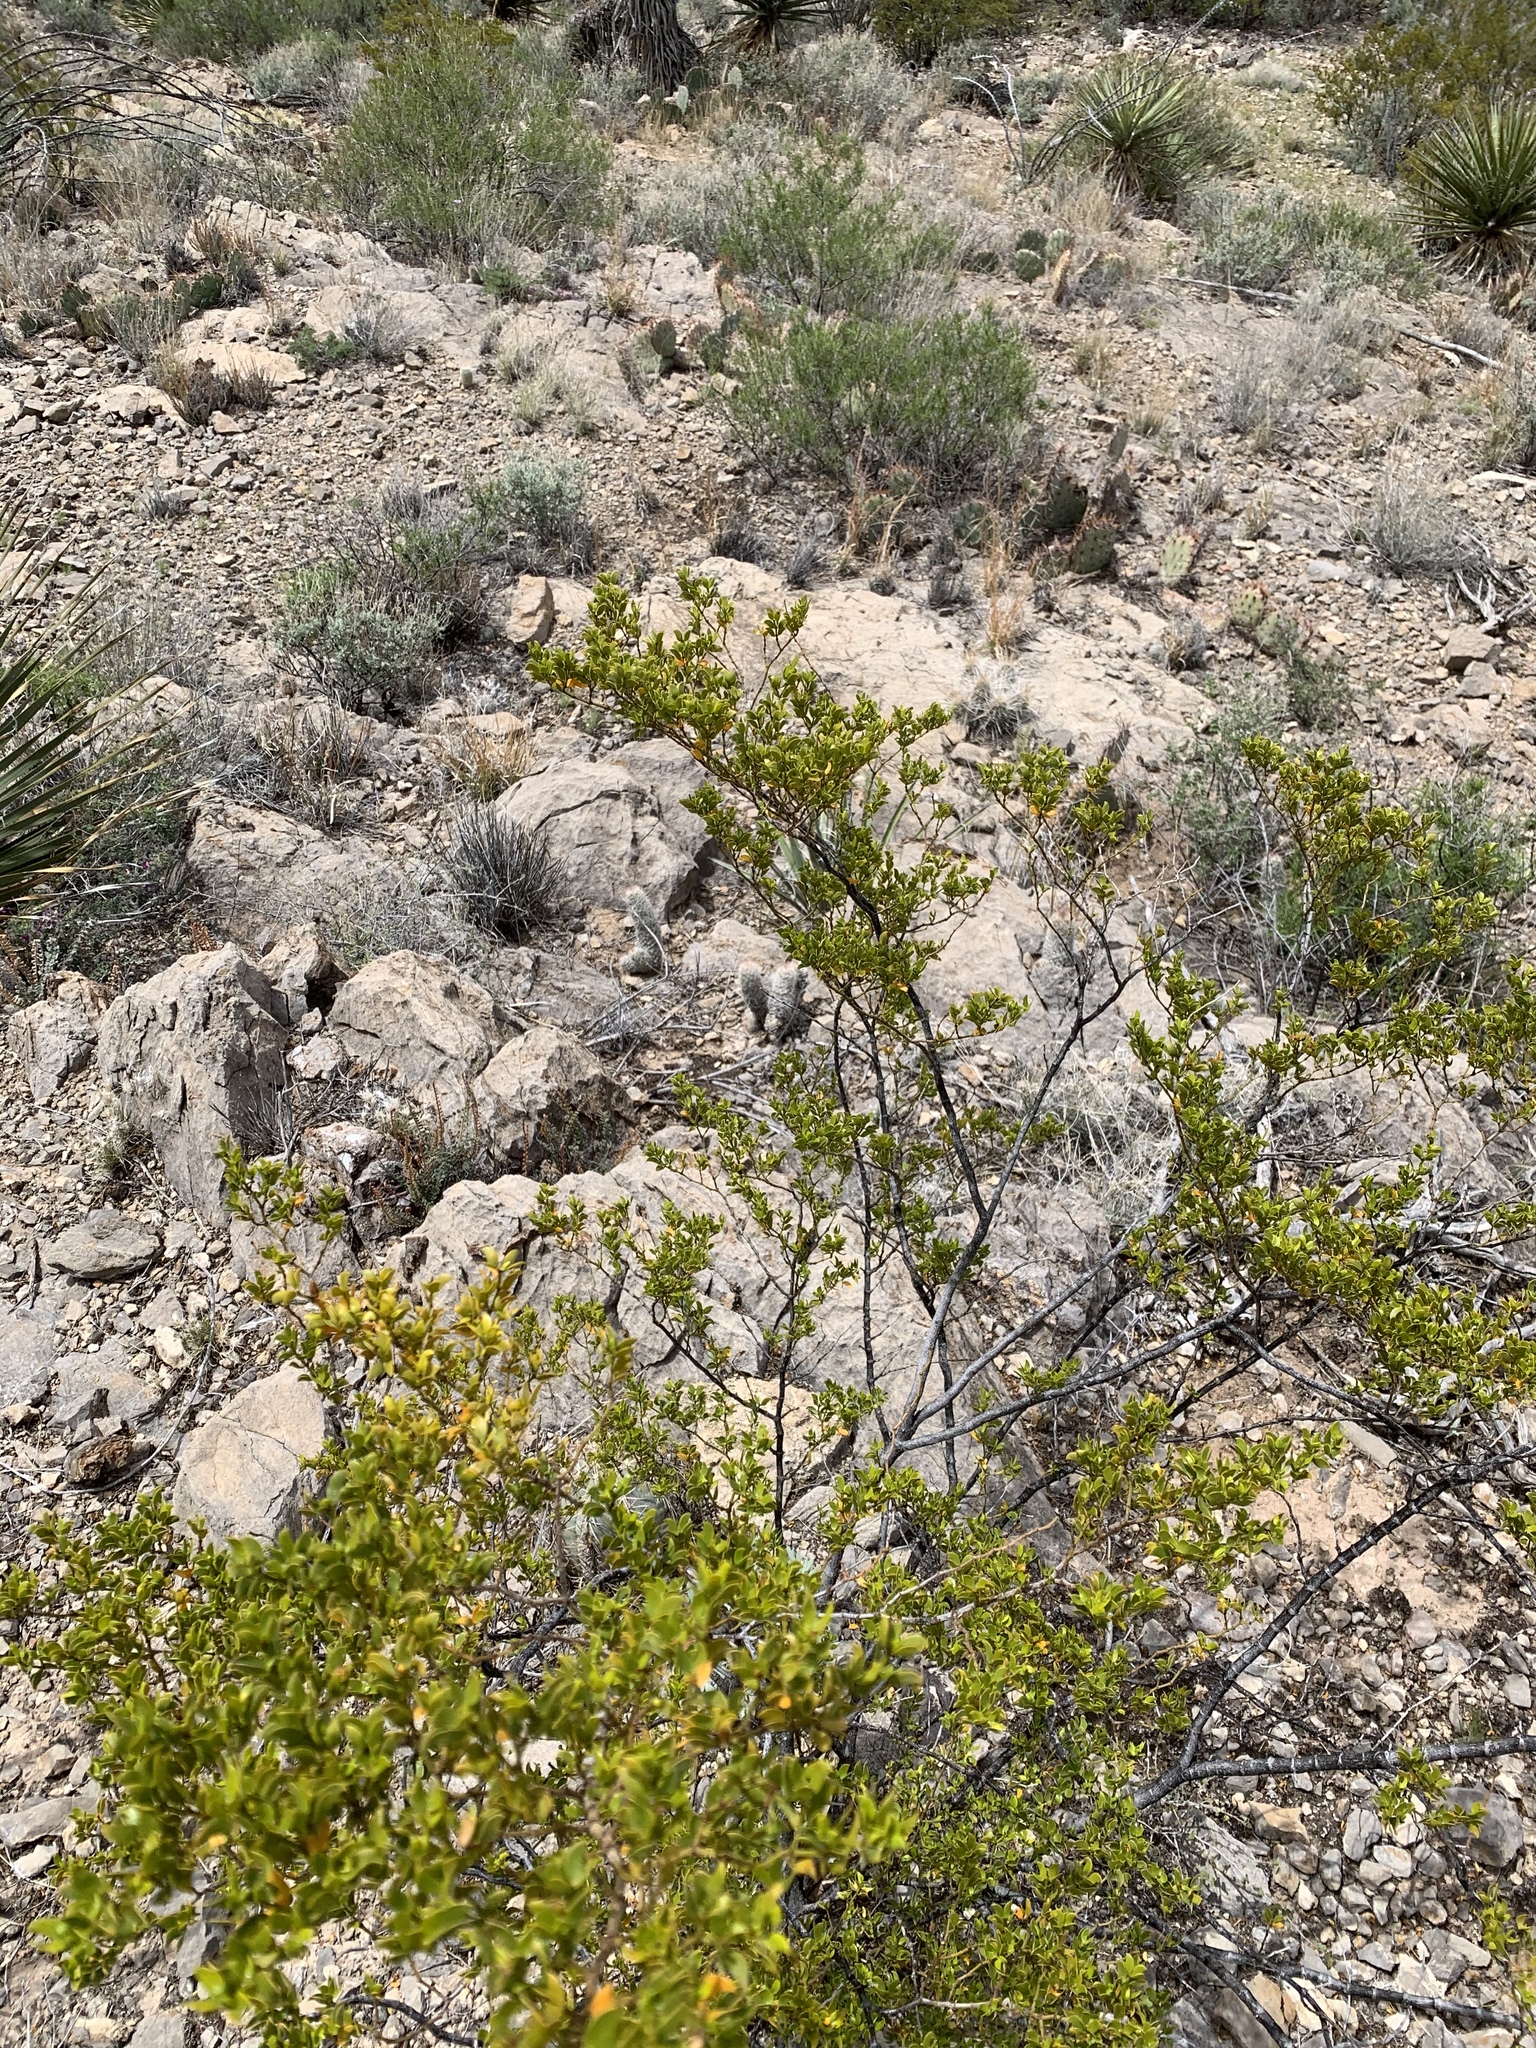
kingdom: Plantae
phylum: Tracheophyta
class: Magnoliopsida
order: Zygophyllales
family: Zygophyllaceae
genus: Larrea
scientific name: Larrea tridentata
